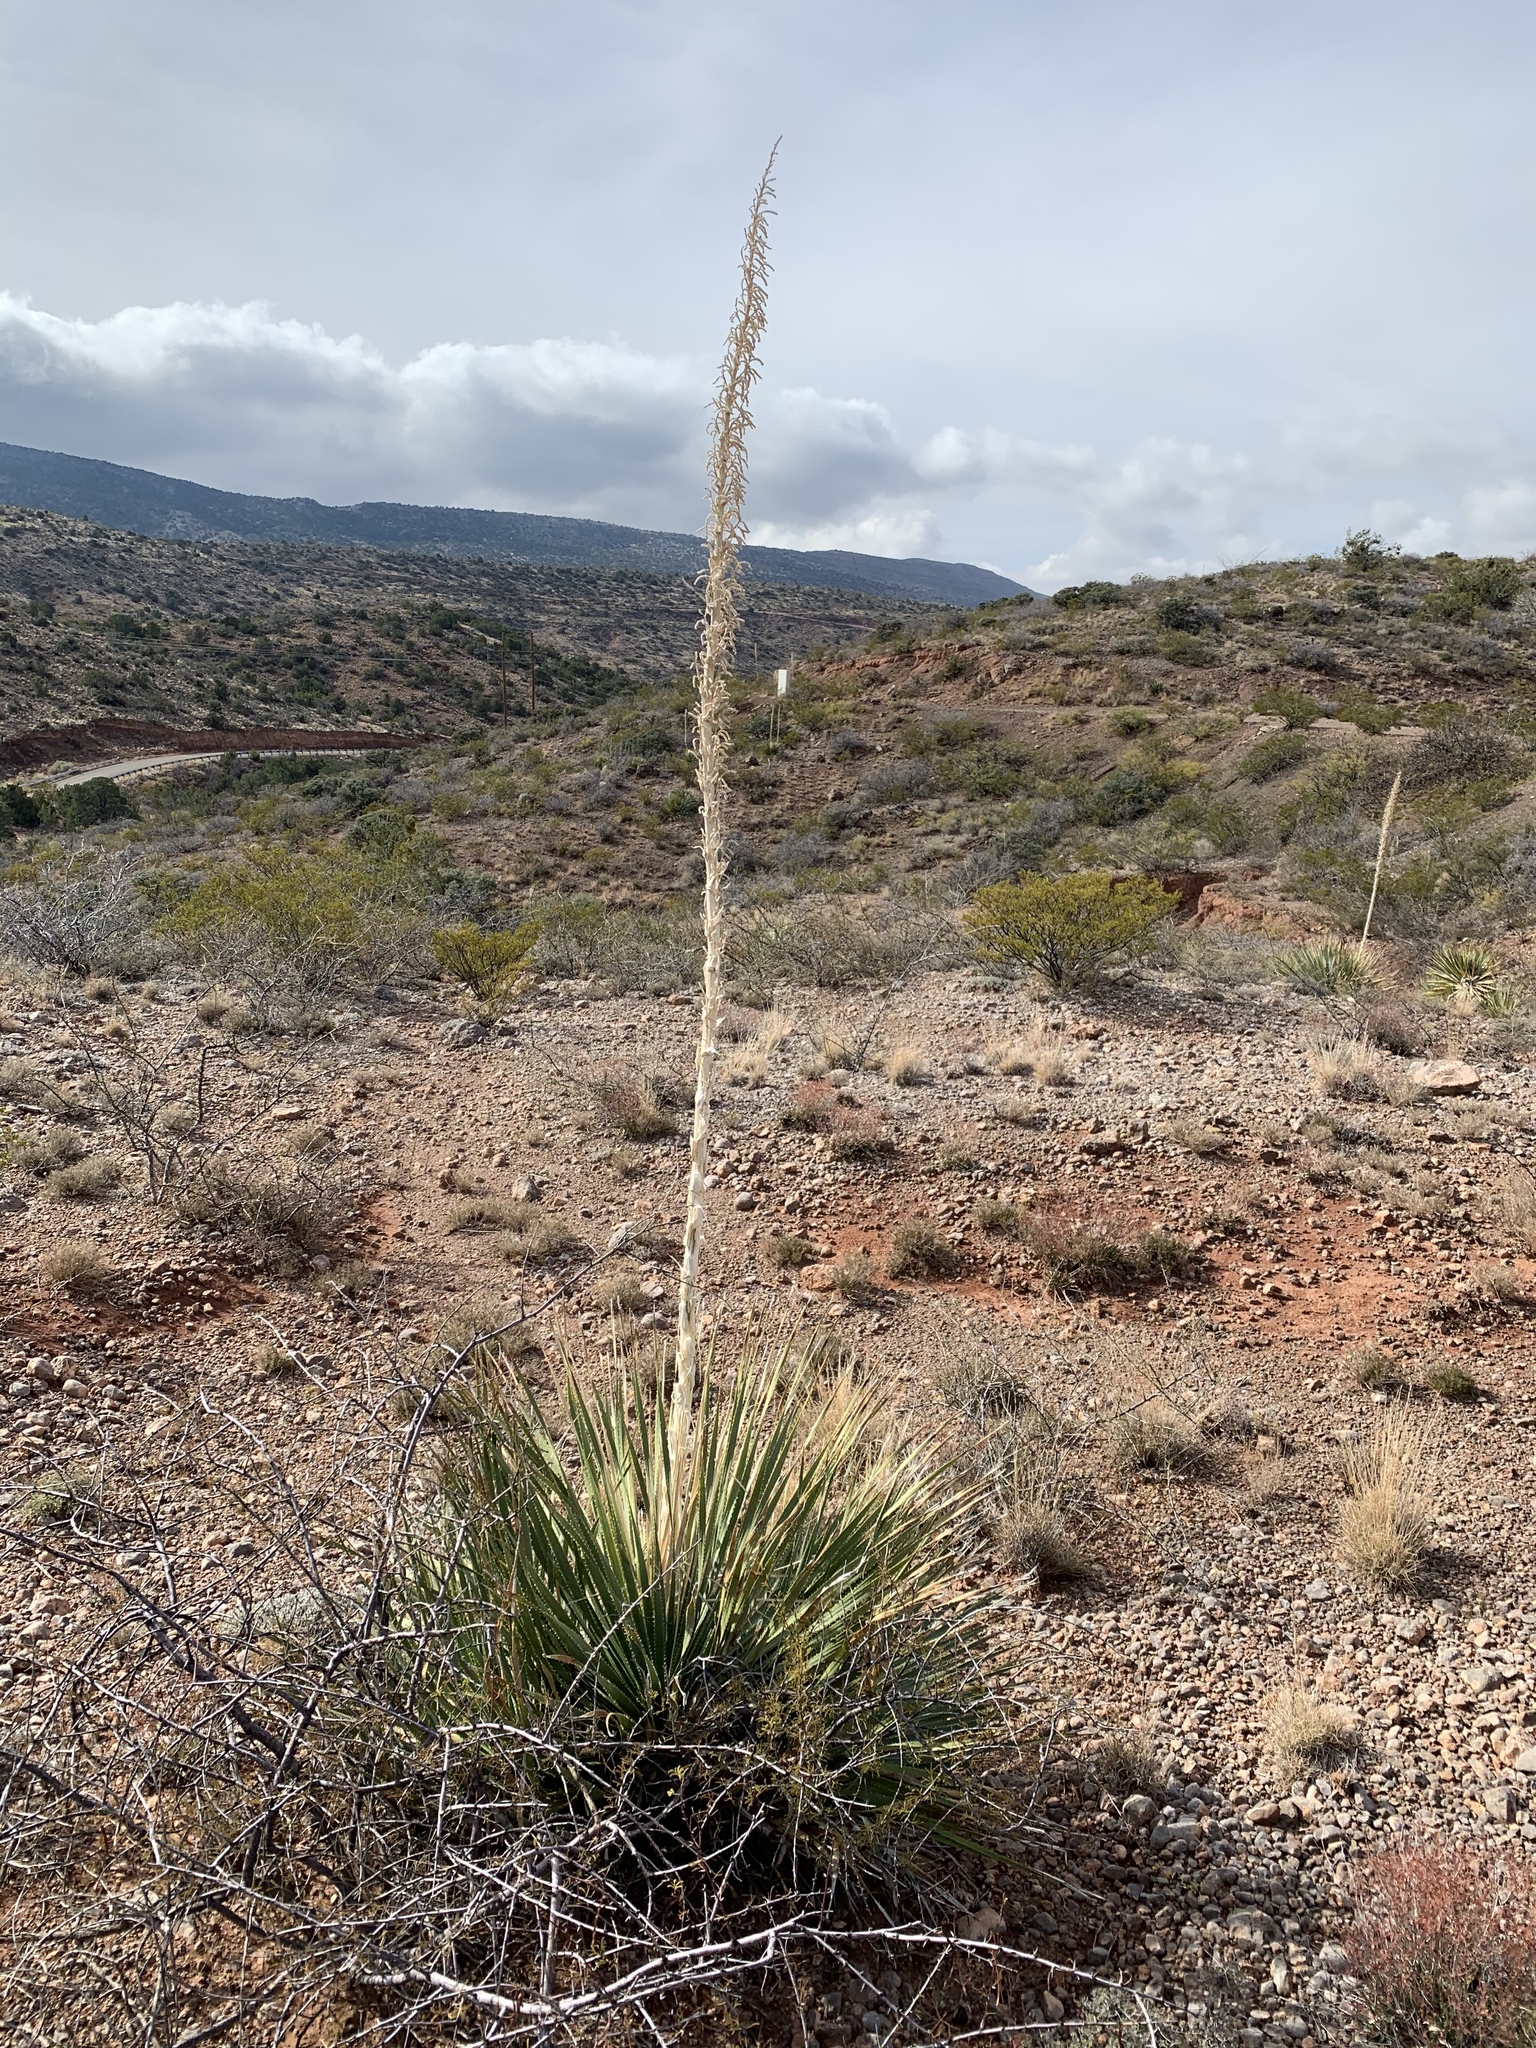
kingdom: Plantae
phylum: Tracheophyta
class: Liliopsida
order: Asparagales
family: Asparagaceae
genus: Dasylirion
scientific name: Dasylirion wheeleri
